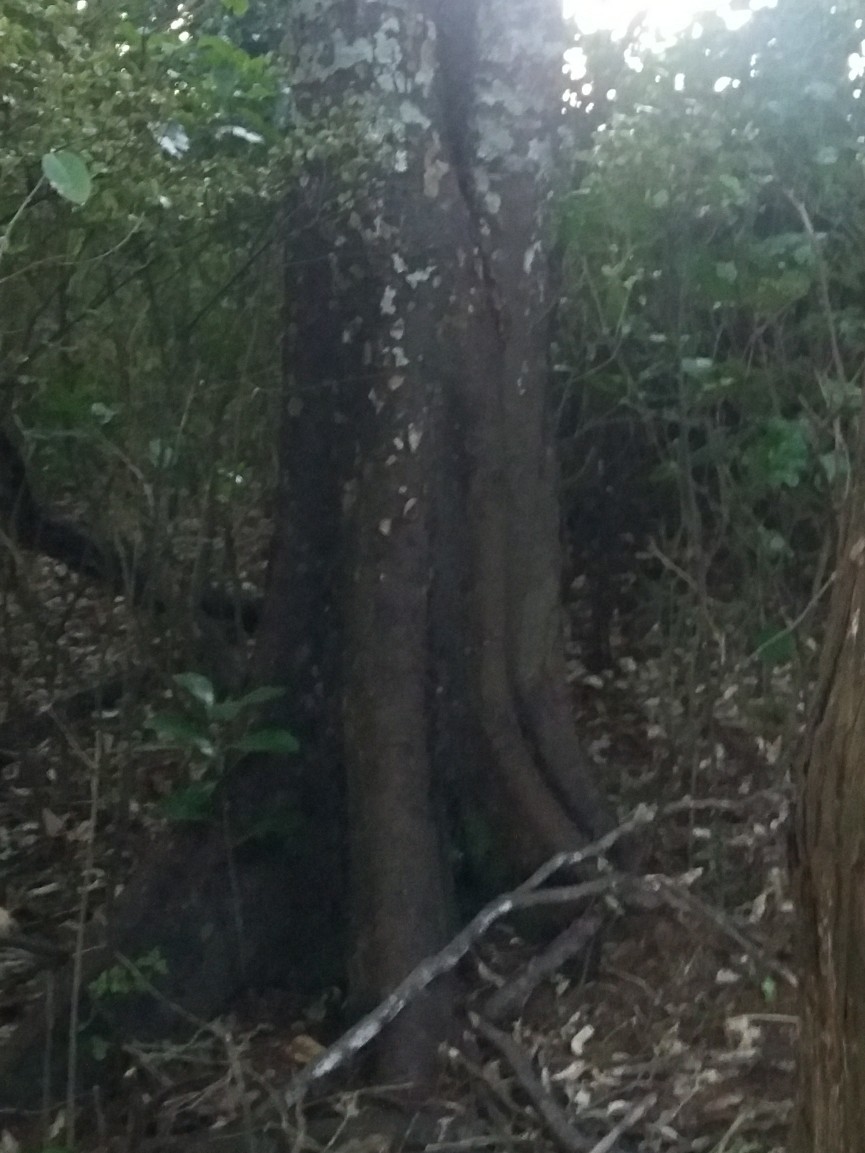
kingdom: Plantae
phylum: Tracheophyta
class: Magnoliopsida
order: Laurales
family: Atherospermataceae
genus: Laurelia
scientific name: Laurelia novae-zelandiae
